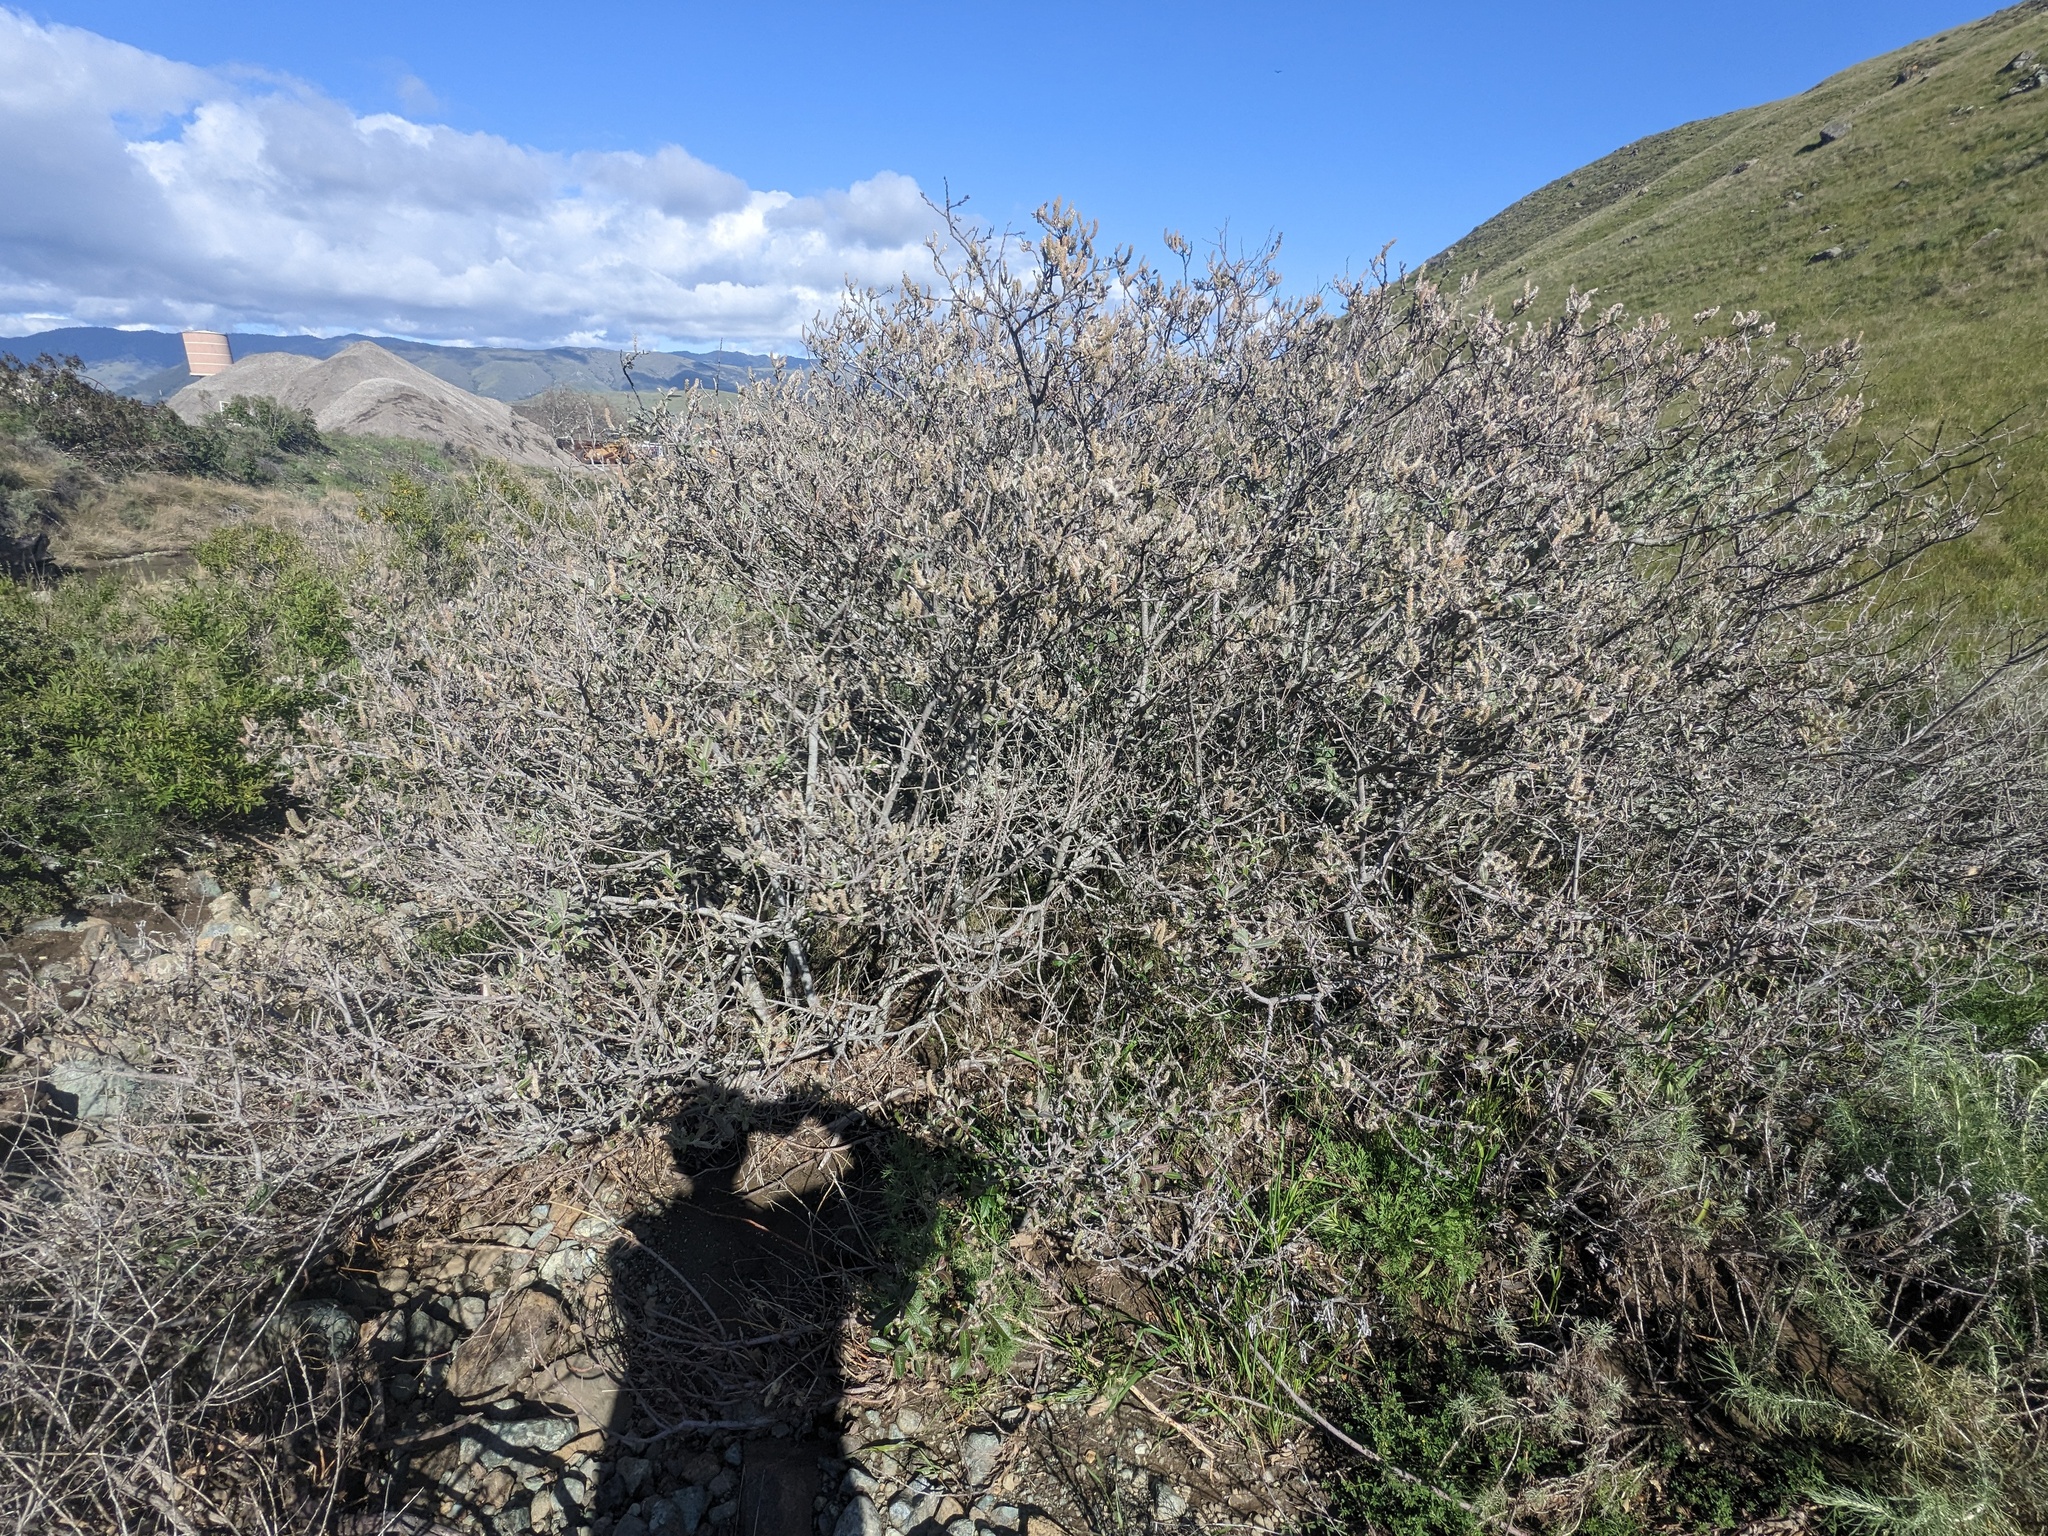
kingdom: Plantae
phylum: Tracheophyta
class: Magnoliopsida
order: Malpighiales
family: Salicaceae
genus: Salix
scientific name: Salix breweri
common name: Brewer’s willow
